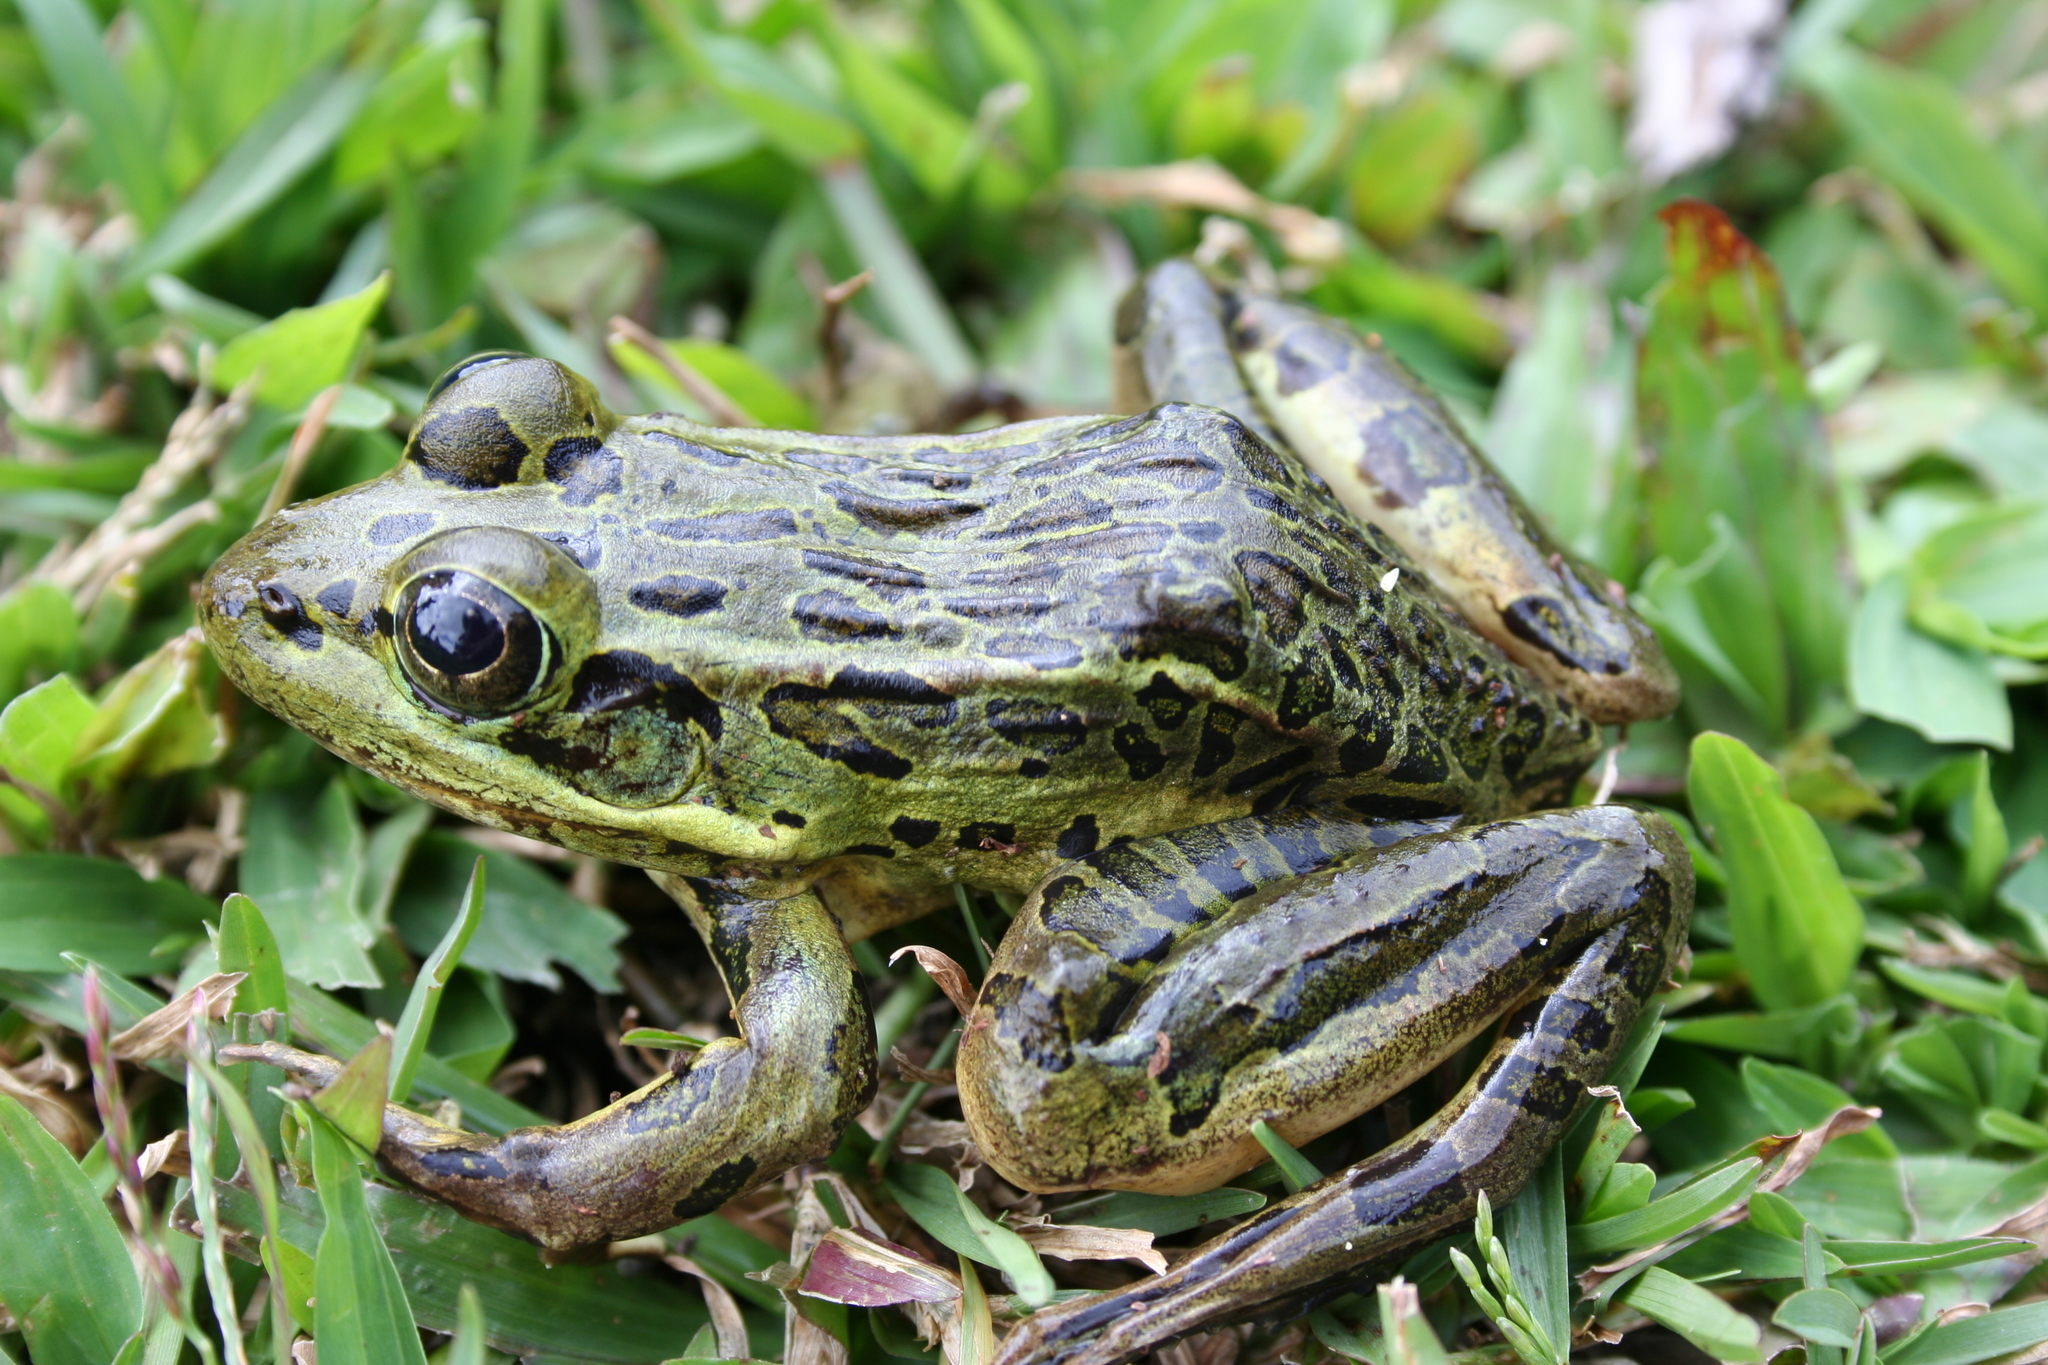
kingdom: Animalia
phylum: Chordata
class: Amphibia
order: Anura
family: Ranidae
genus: Lithobates
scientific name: Lithobates forreri
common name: Forrer's grass frog
